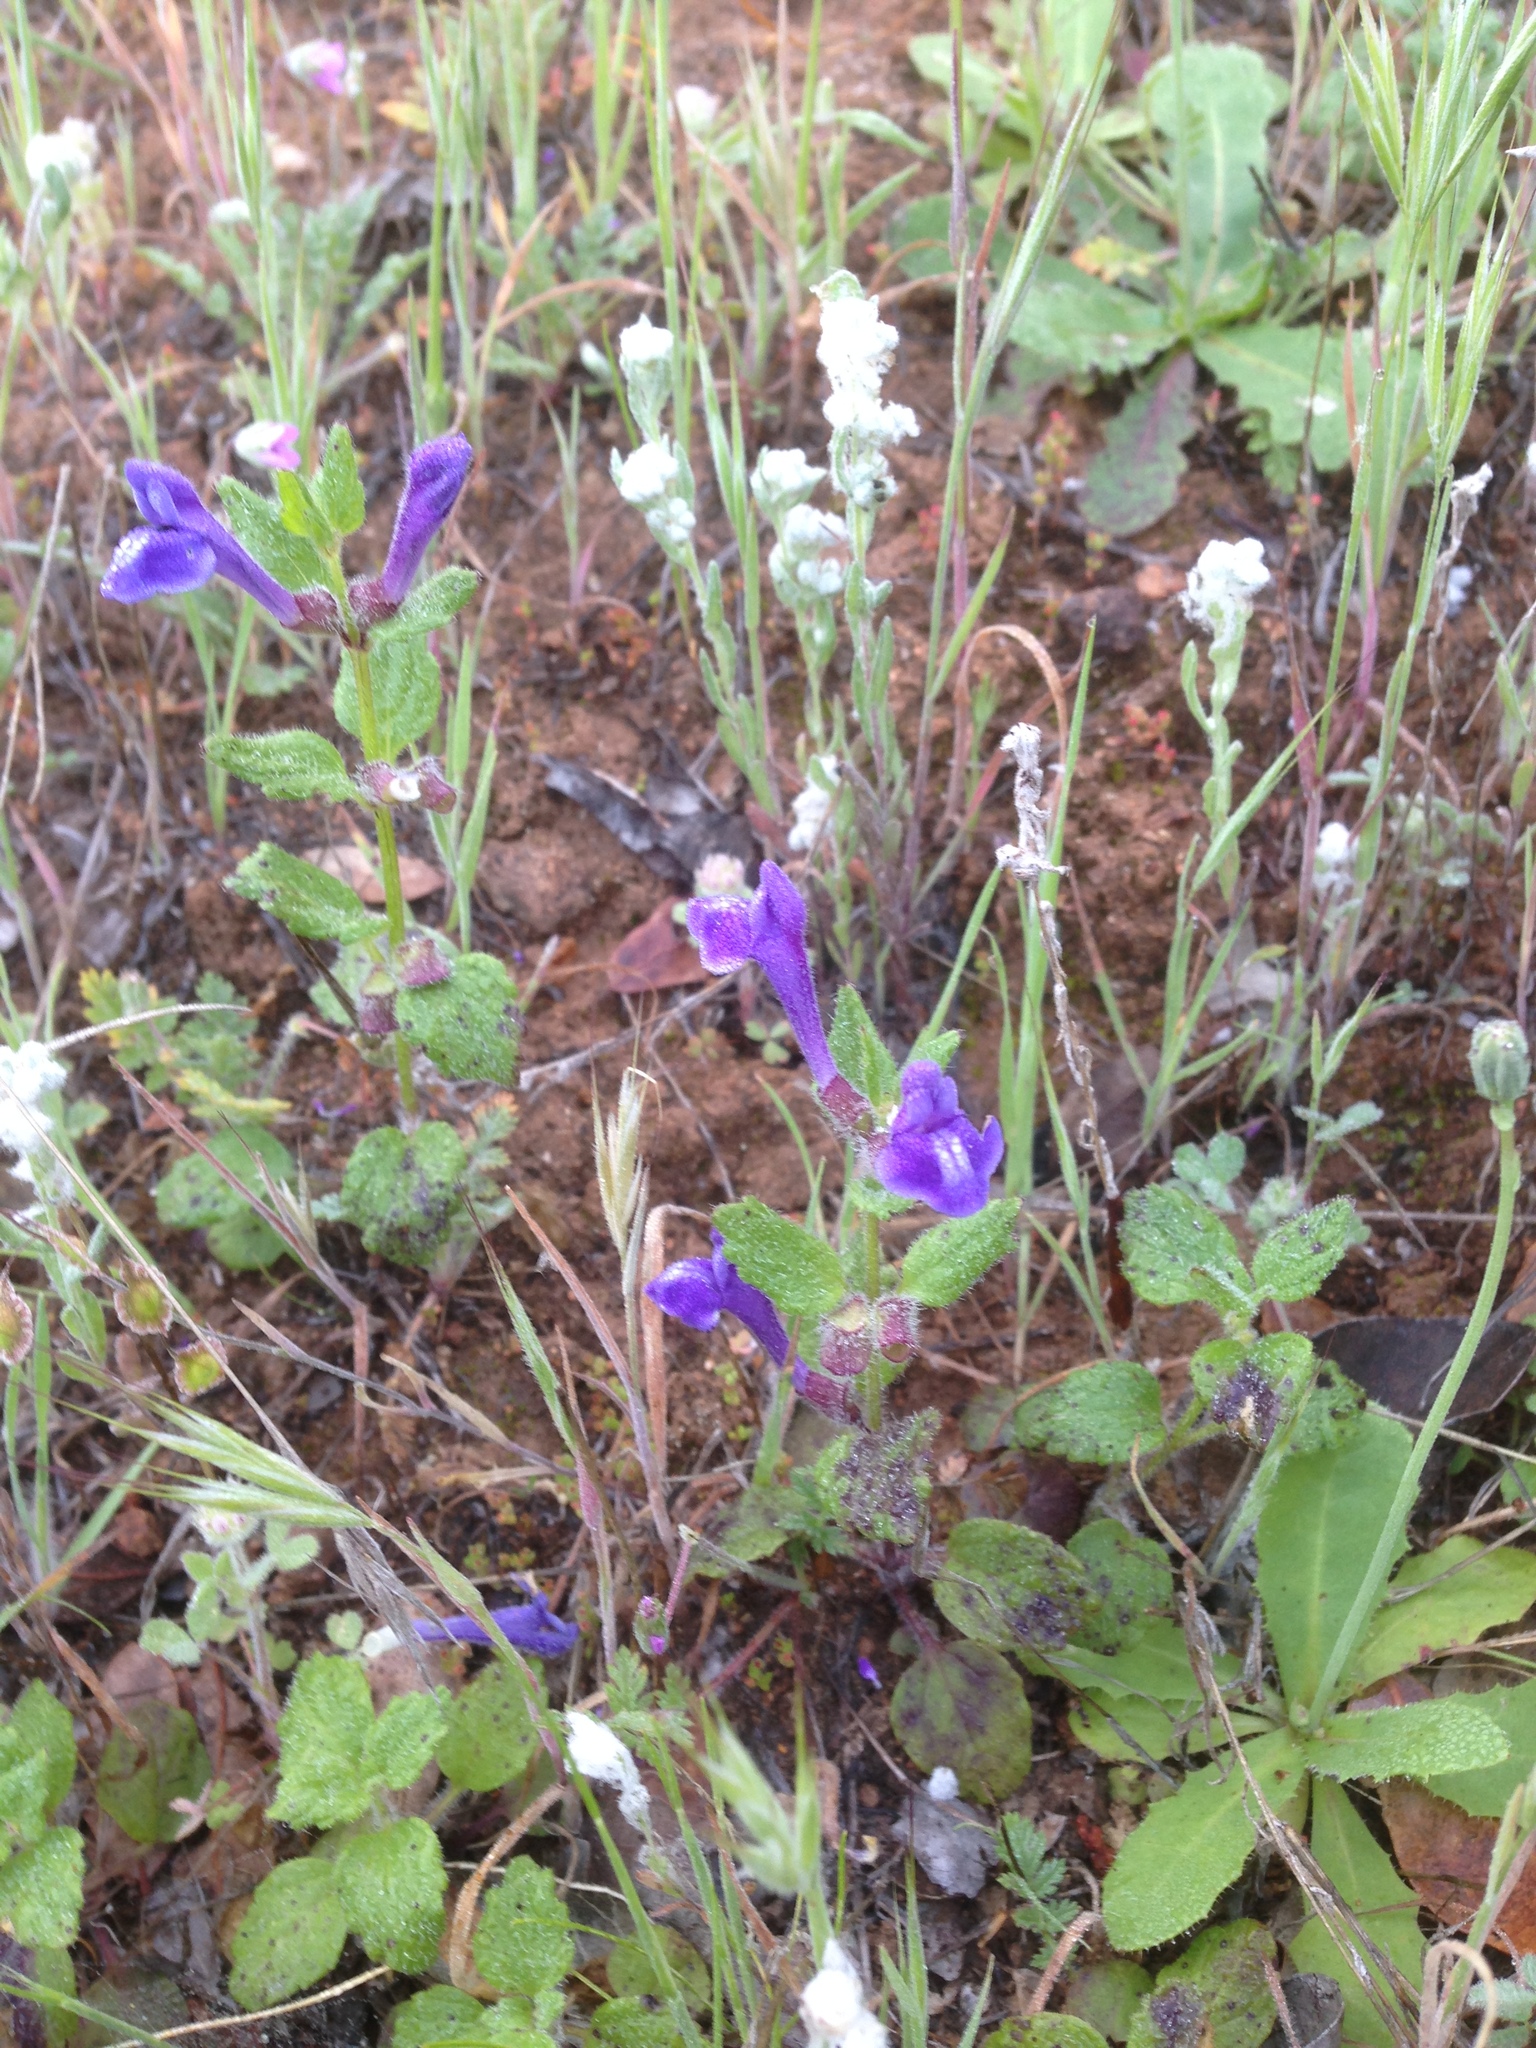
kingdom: Plantae
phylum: Tracheophyta
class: Magnoliopsida
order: Lamiales
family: Lamiaceae
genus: Scutellaria
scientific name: Scutellaria tuberosa
